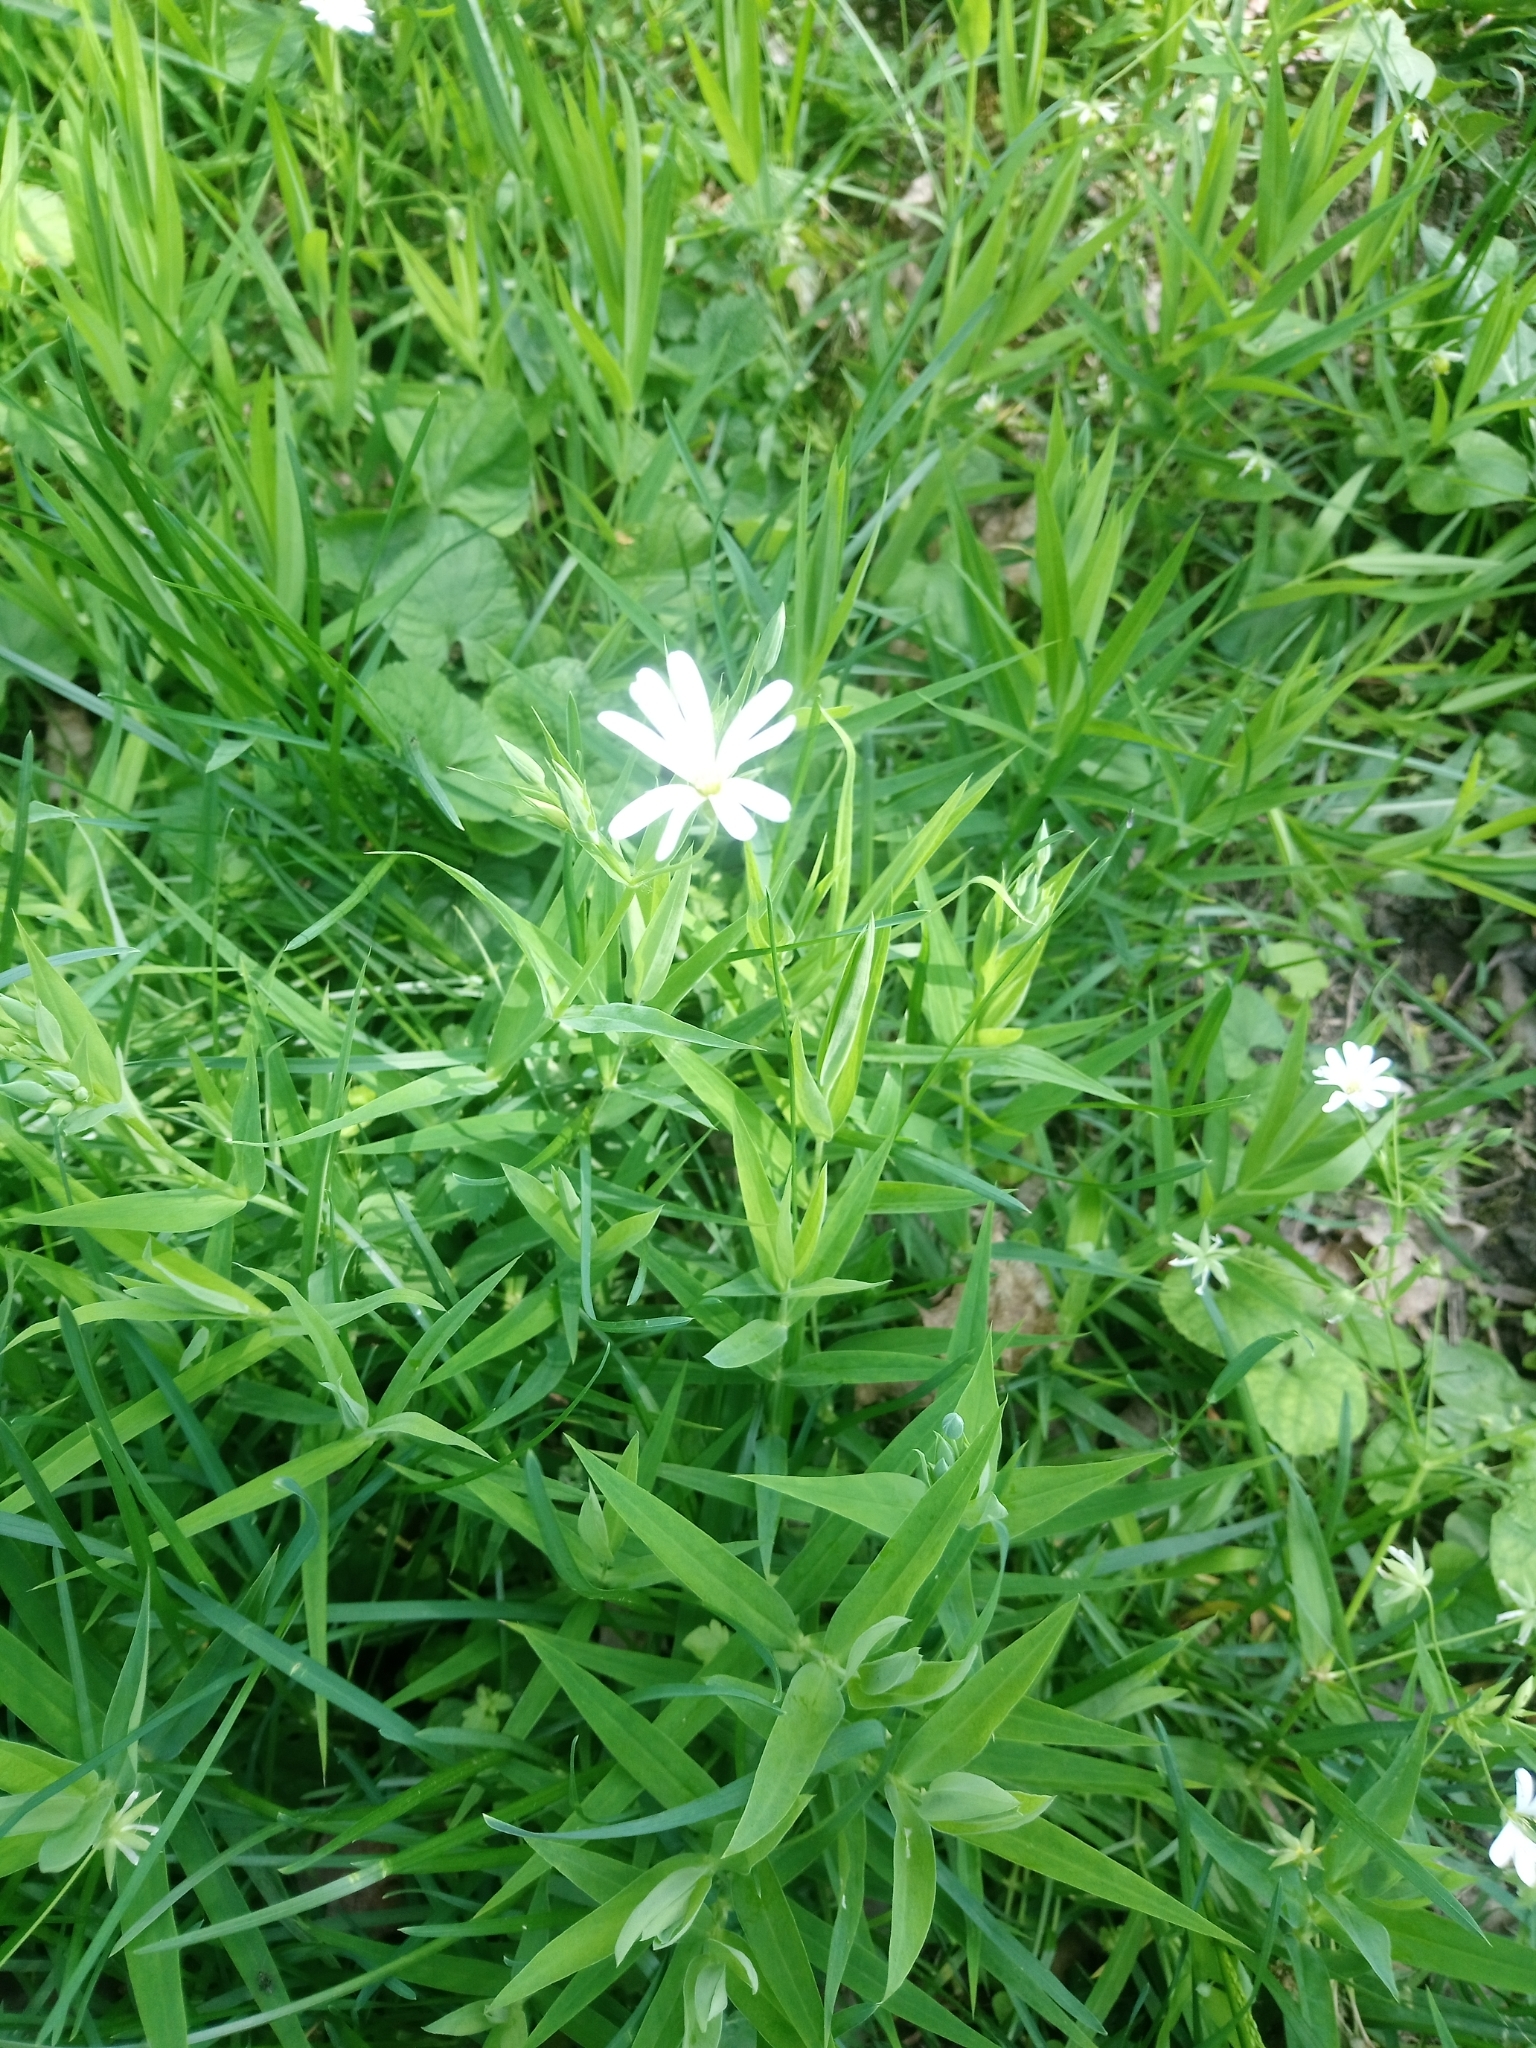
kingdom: Plantae
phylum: Tracheophyta
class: Magnoliopsida
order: Caryophyllales
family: Caryophyllaceae
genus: Rabelera
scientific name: Rabelera holostea
